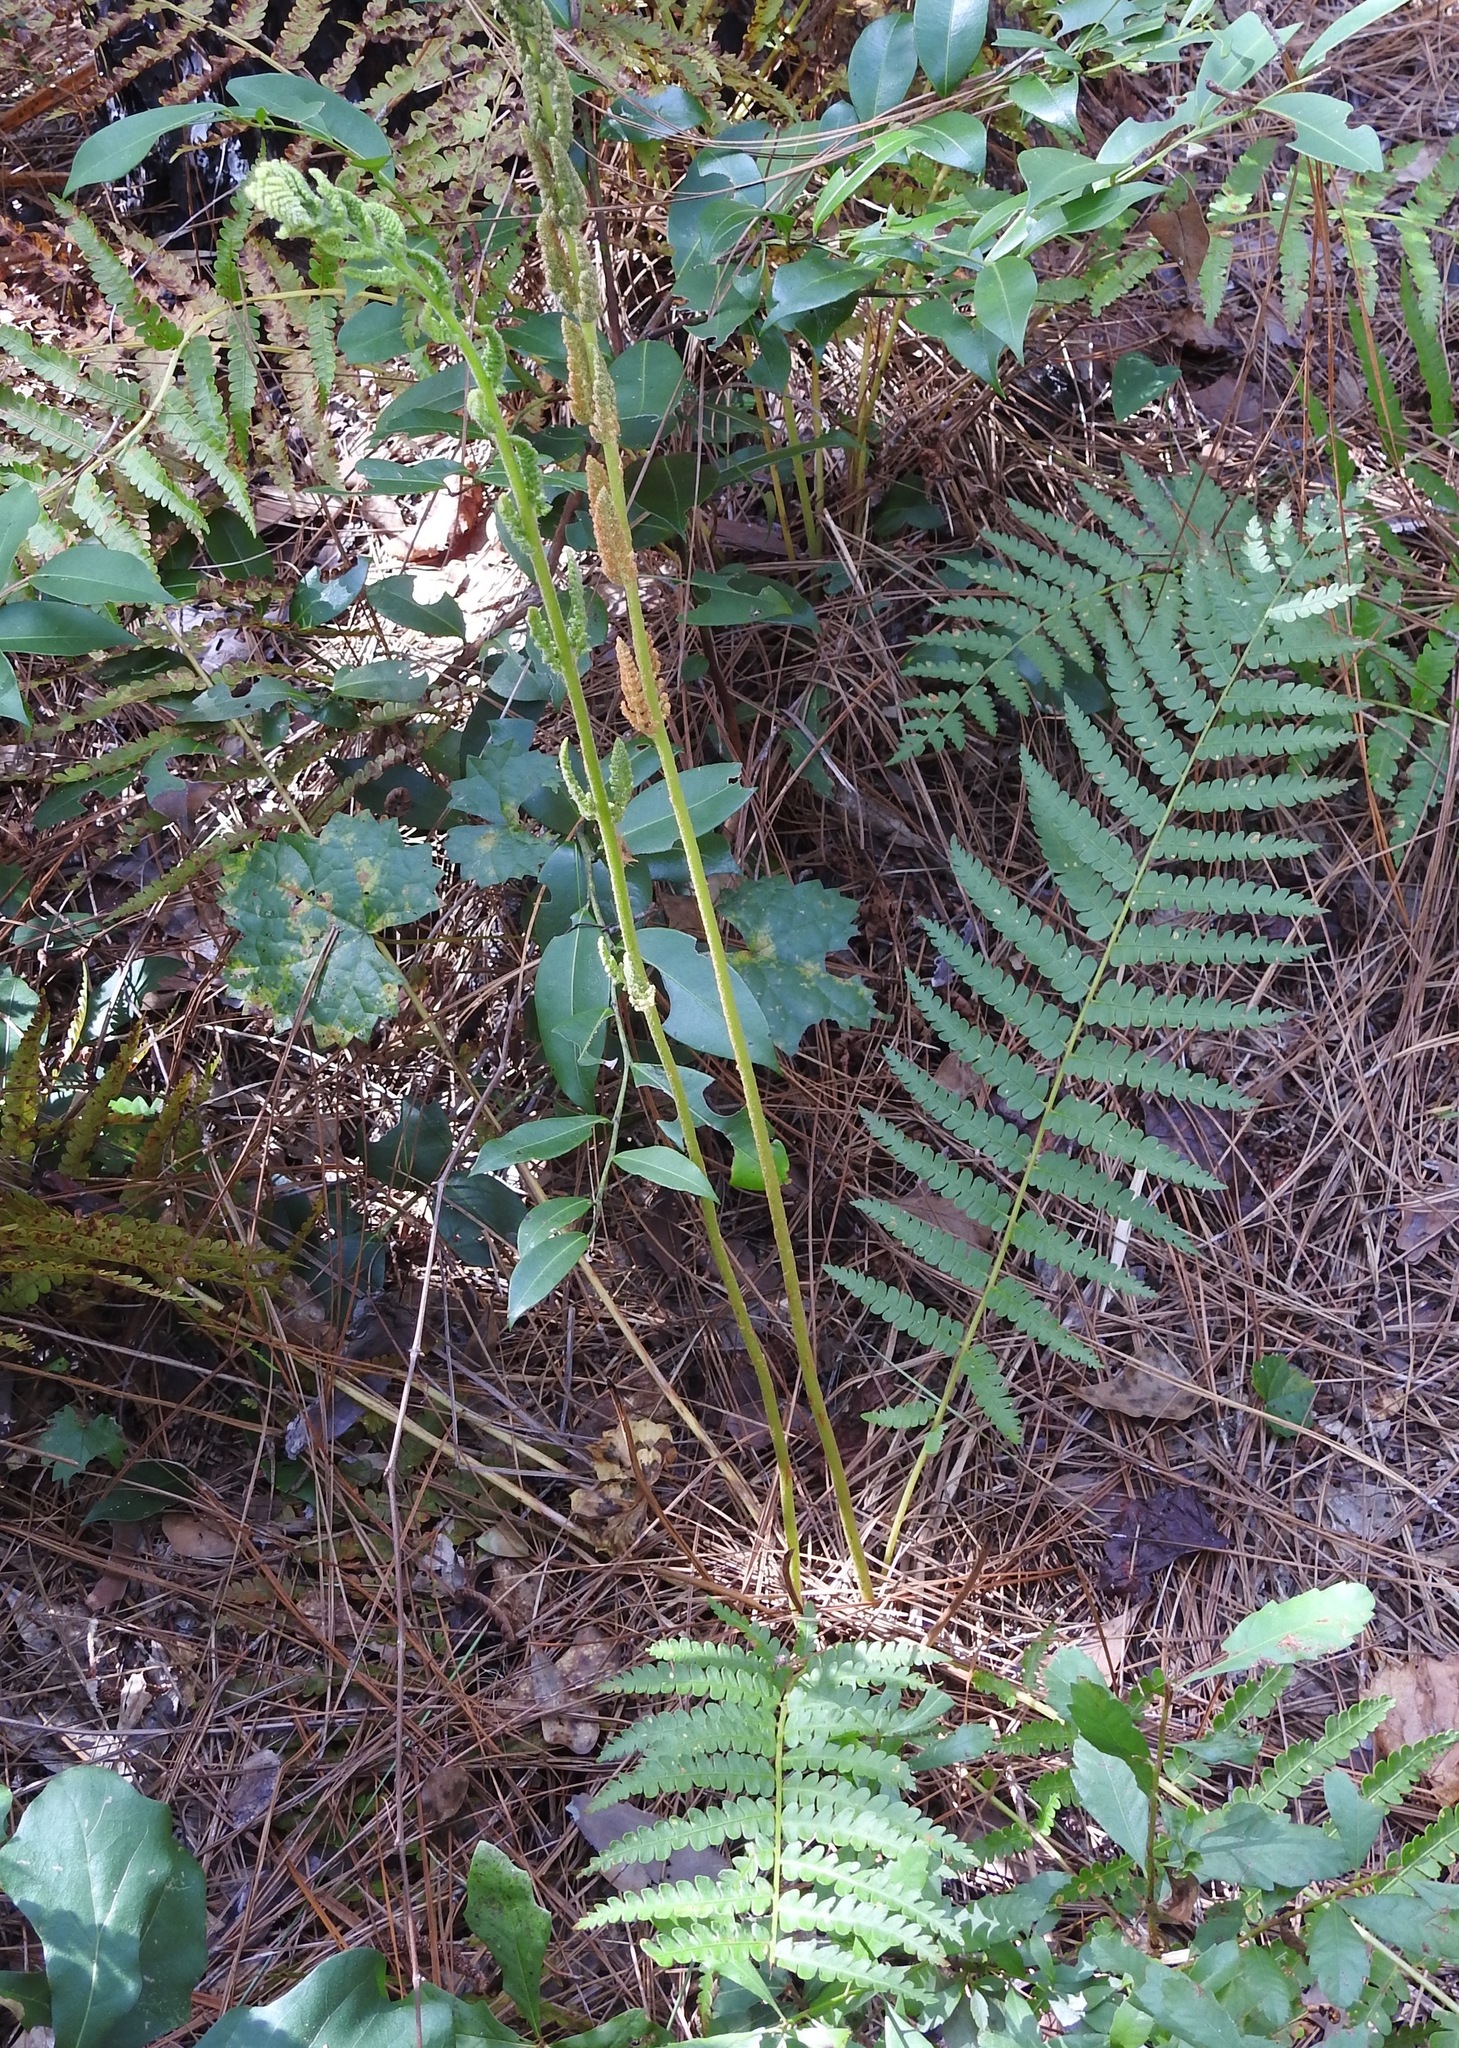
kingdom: Plantae
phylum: Tracheophyta
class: Polypodiopsida
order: Osmundales
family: Osmundaceae
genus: Osmundastrum
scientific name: Osmundastrum cinnamomeum
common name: Cinnamon fern
